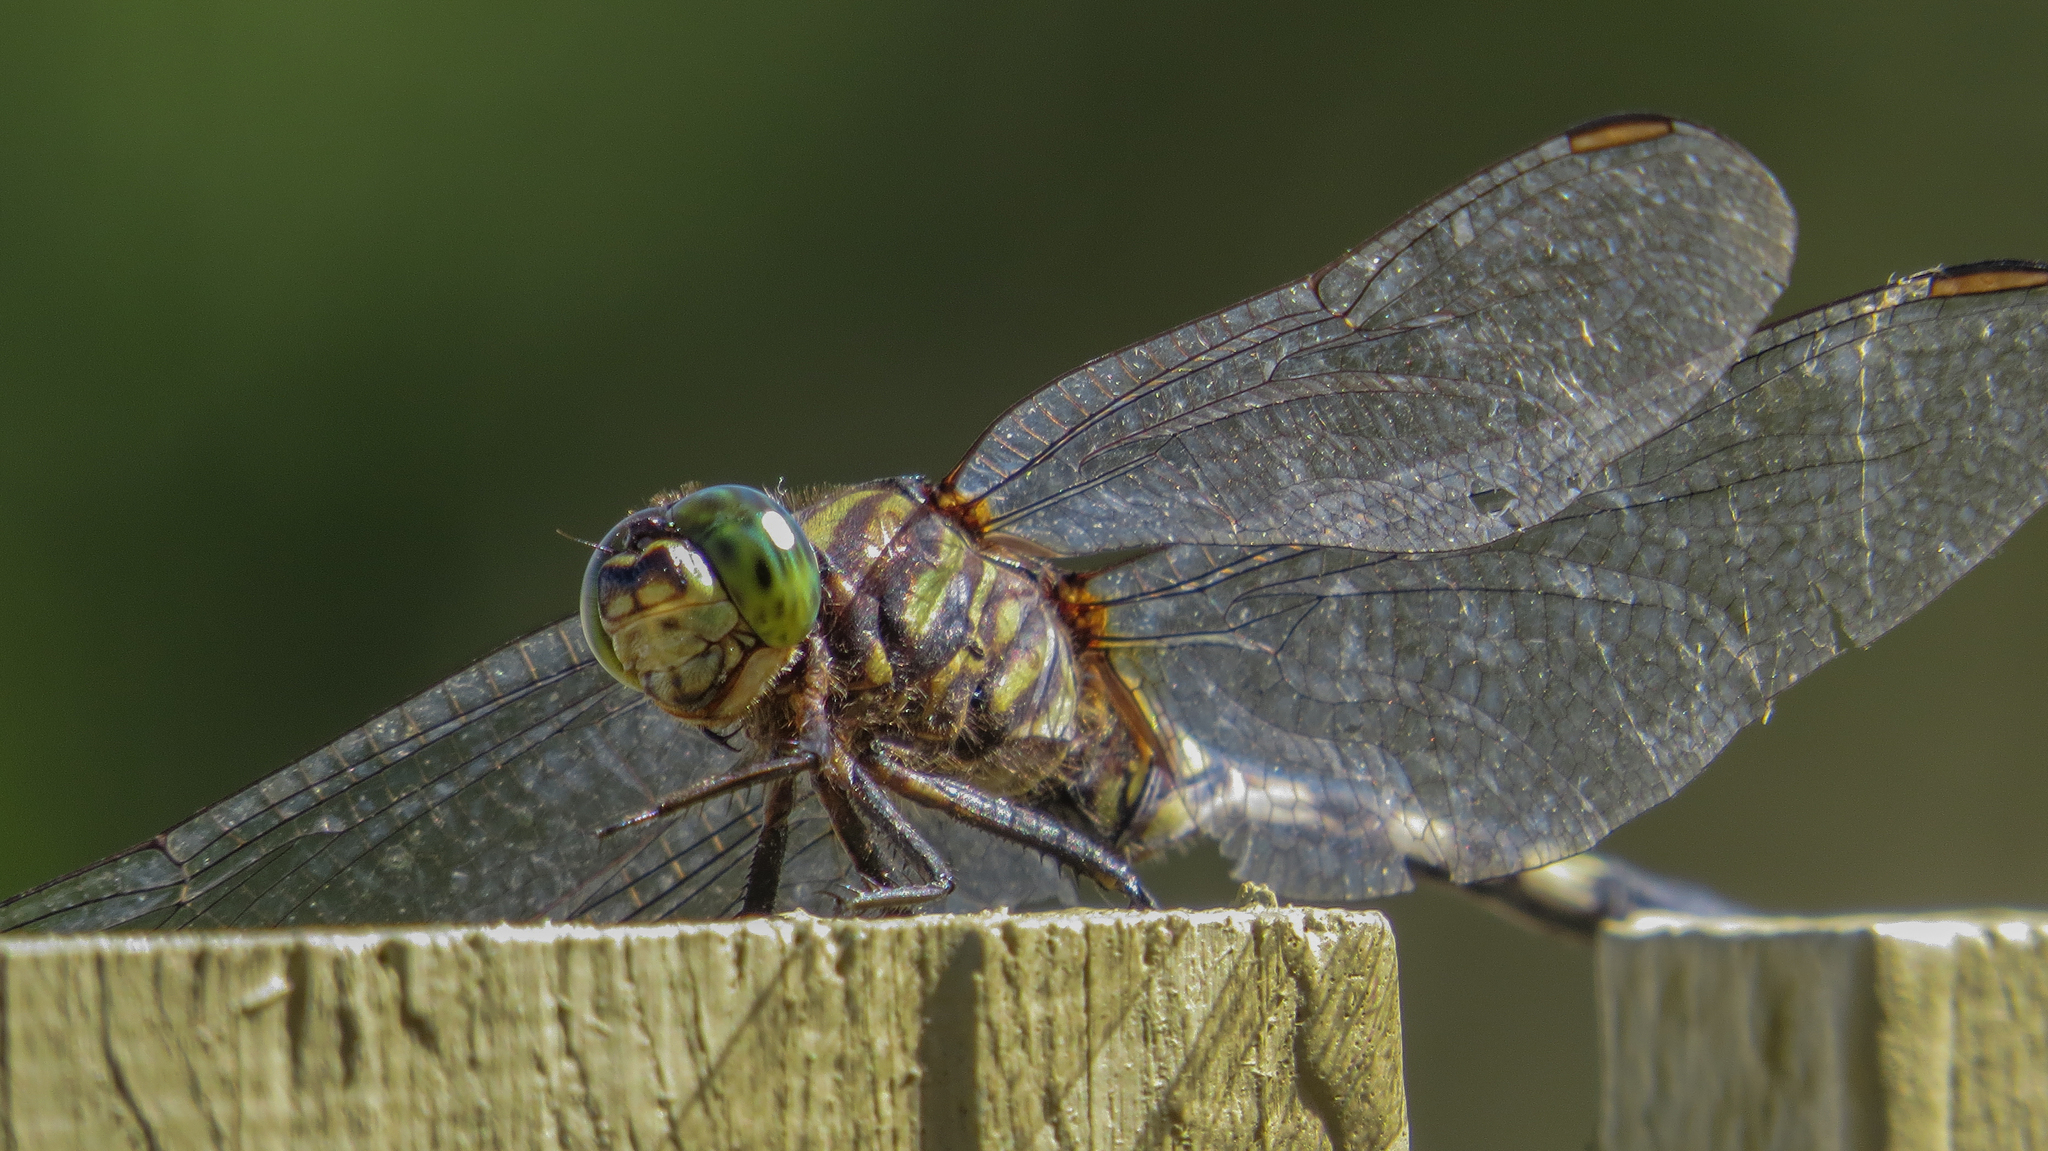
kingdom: Animalia
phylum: Arthropoda
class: Insecta
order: Odonata
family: Libellulidae
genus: Orthetrum
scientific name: Orthetrum serapia
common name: Green skimmer
